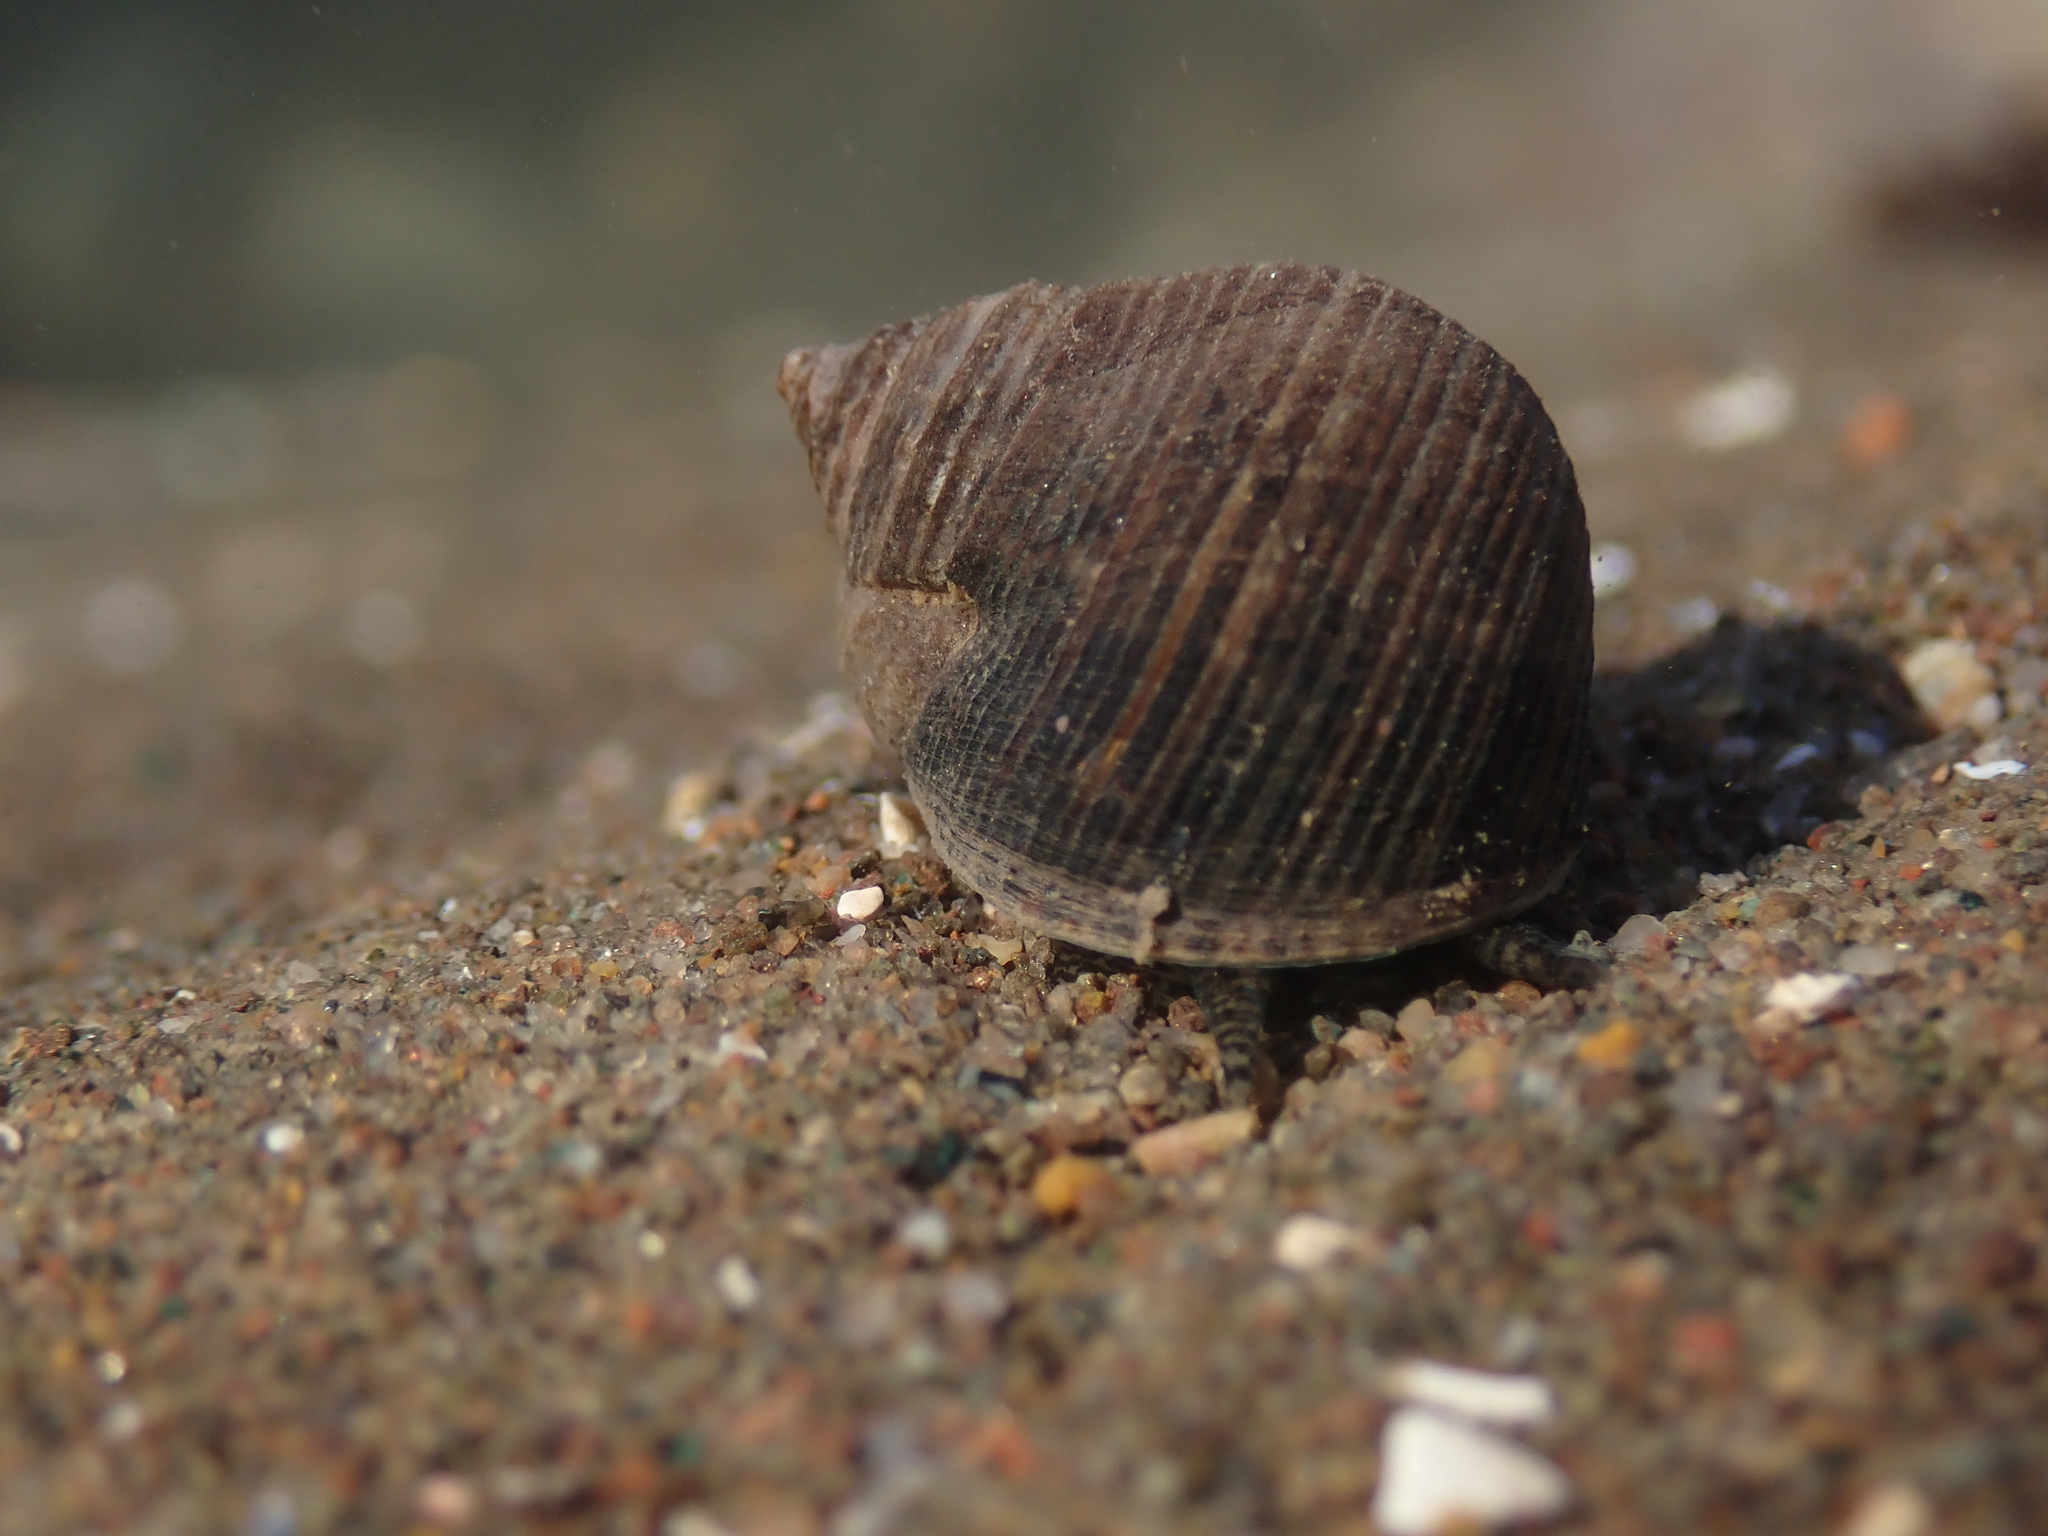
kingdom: Animalia
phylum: Mollusca
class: Gastropoda
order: Littorinimorpha
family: Littorinidae
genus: Littorina
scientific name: Littorina littorea
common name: Common periwinkle
